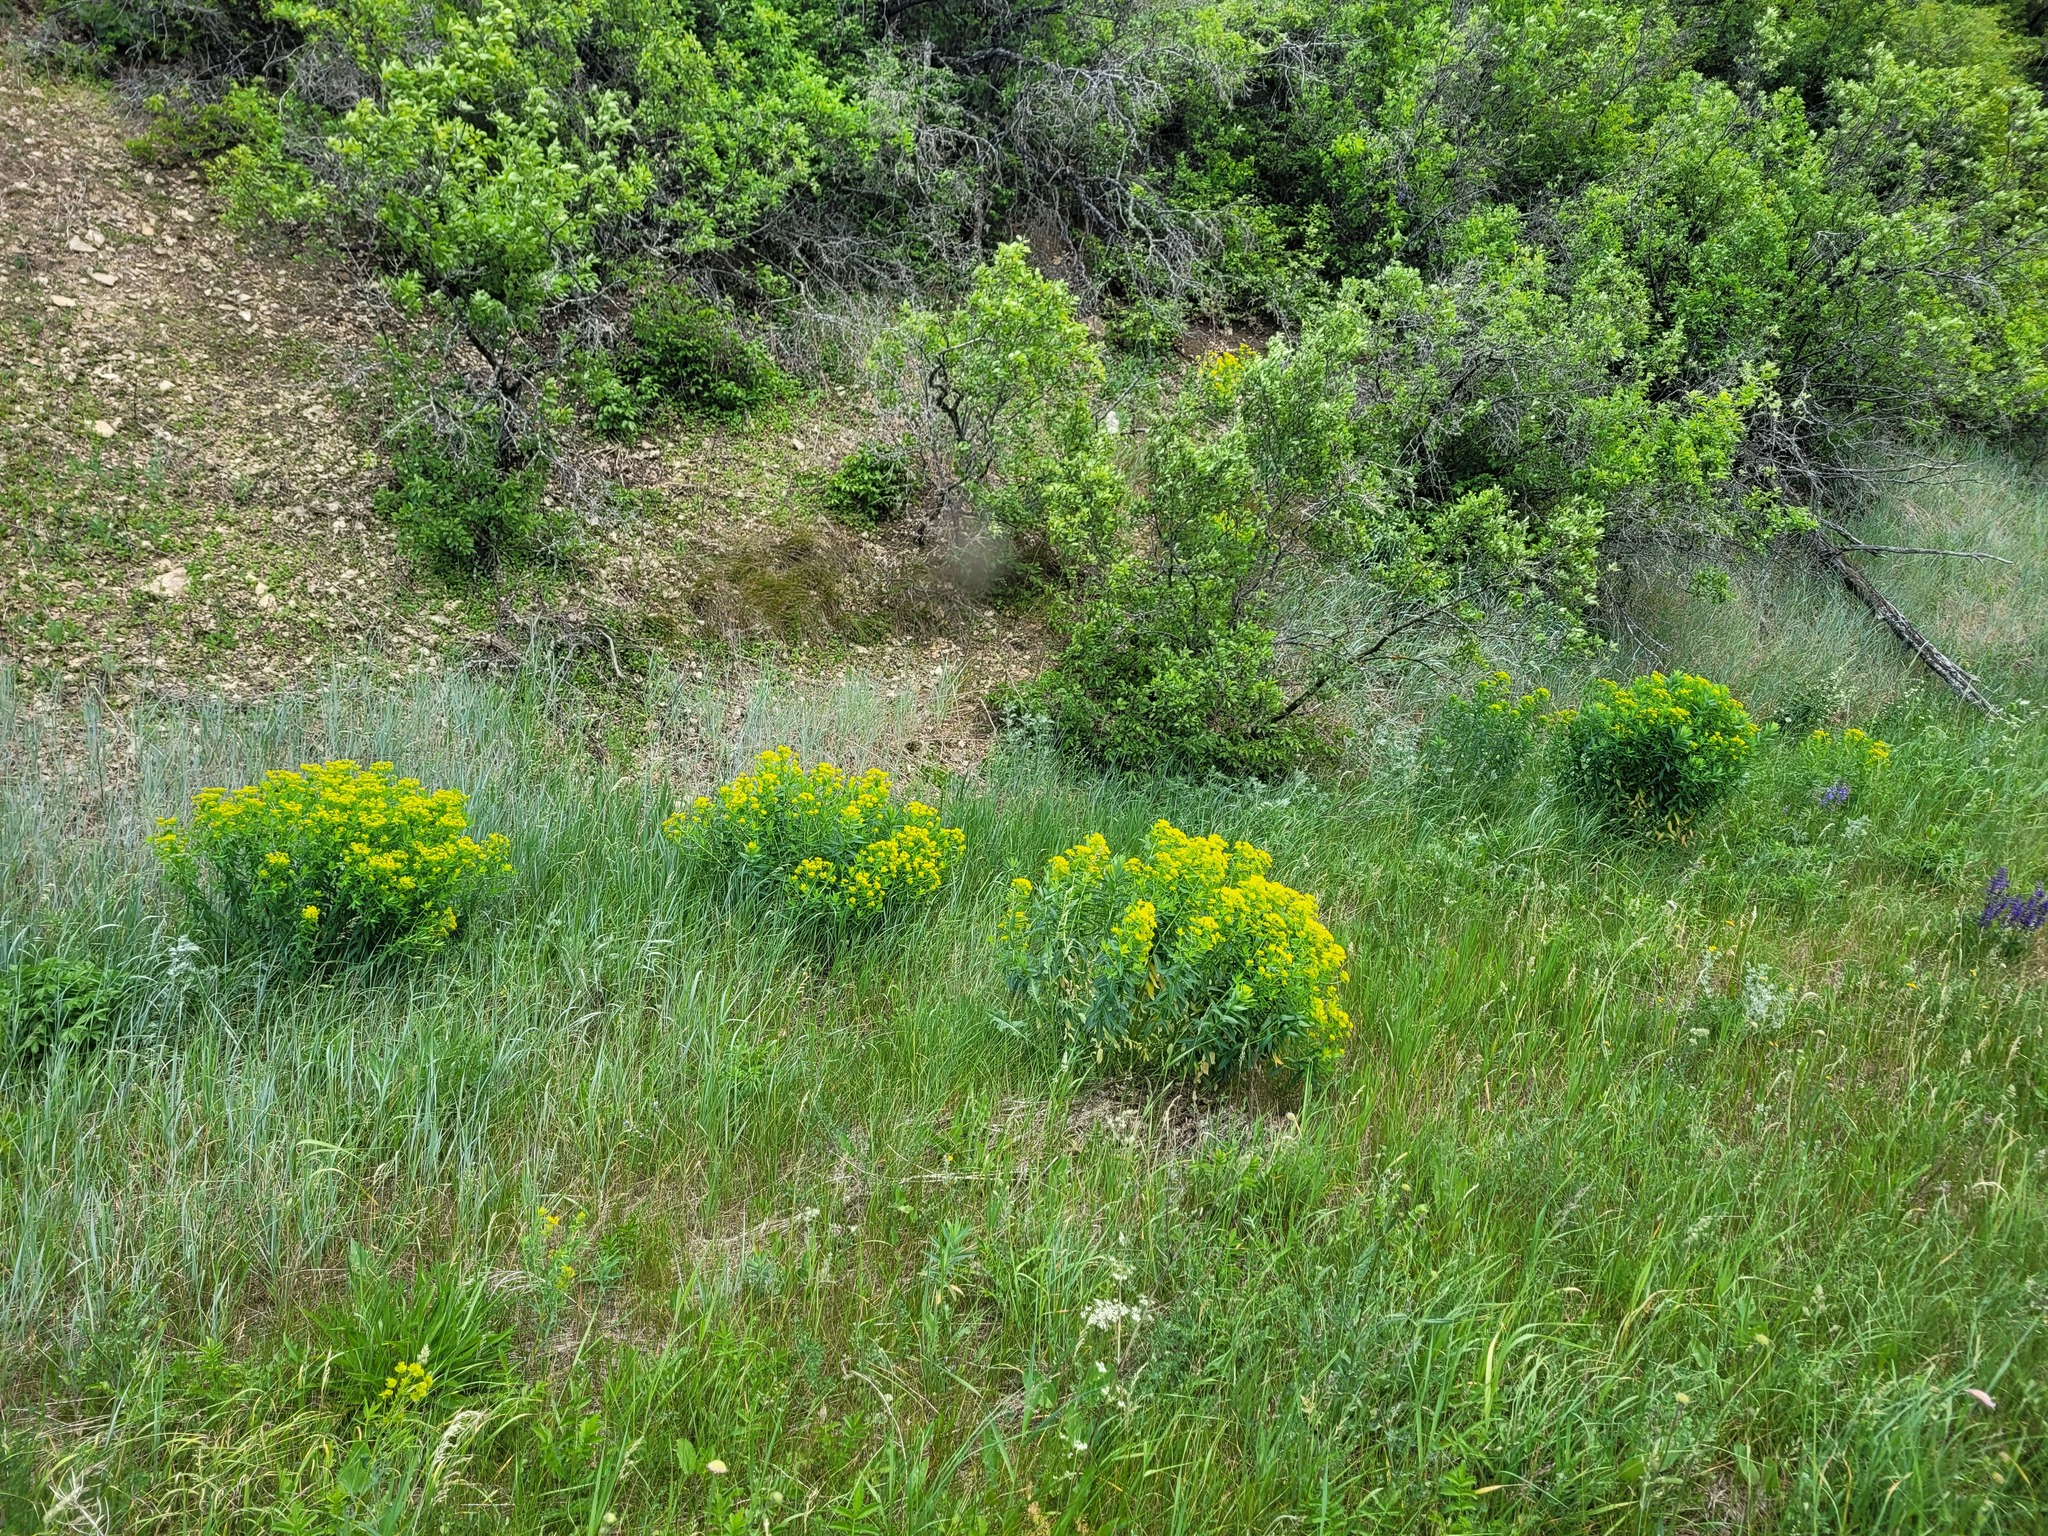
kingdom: Plantae
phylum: Tracheophyta
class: Magnoliopsida
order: Malpighiales
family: Euphorbiaceae
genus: Euphorbia
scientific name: Euphorbia semivillosa
